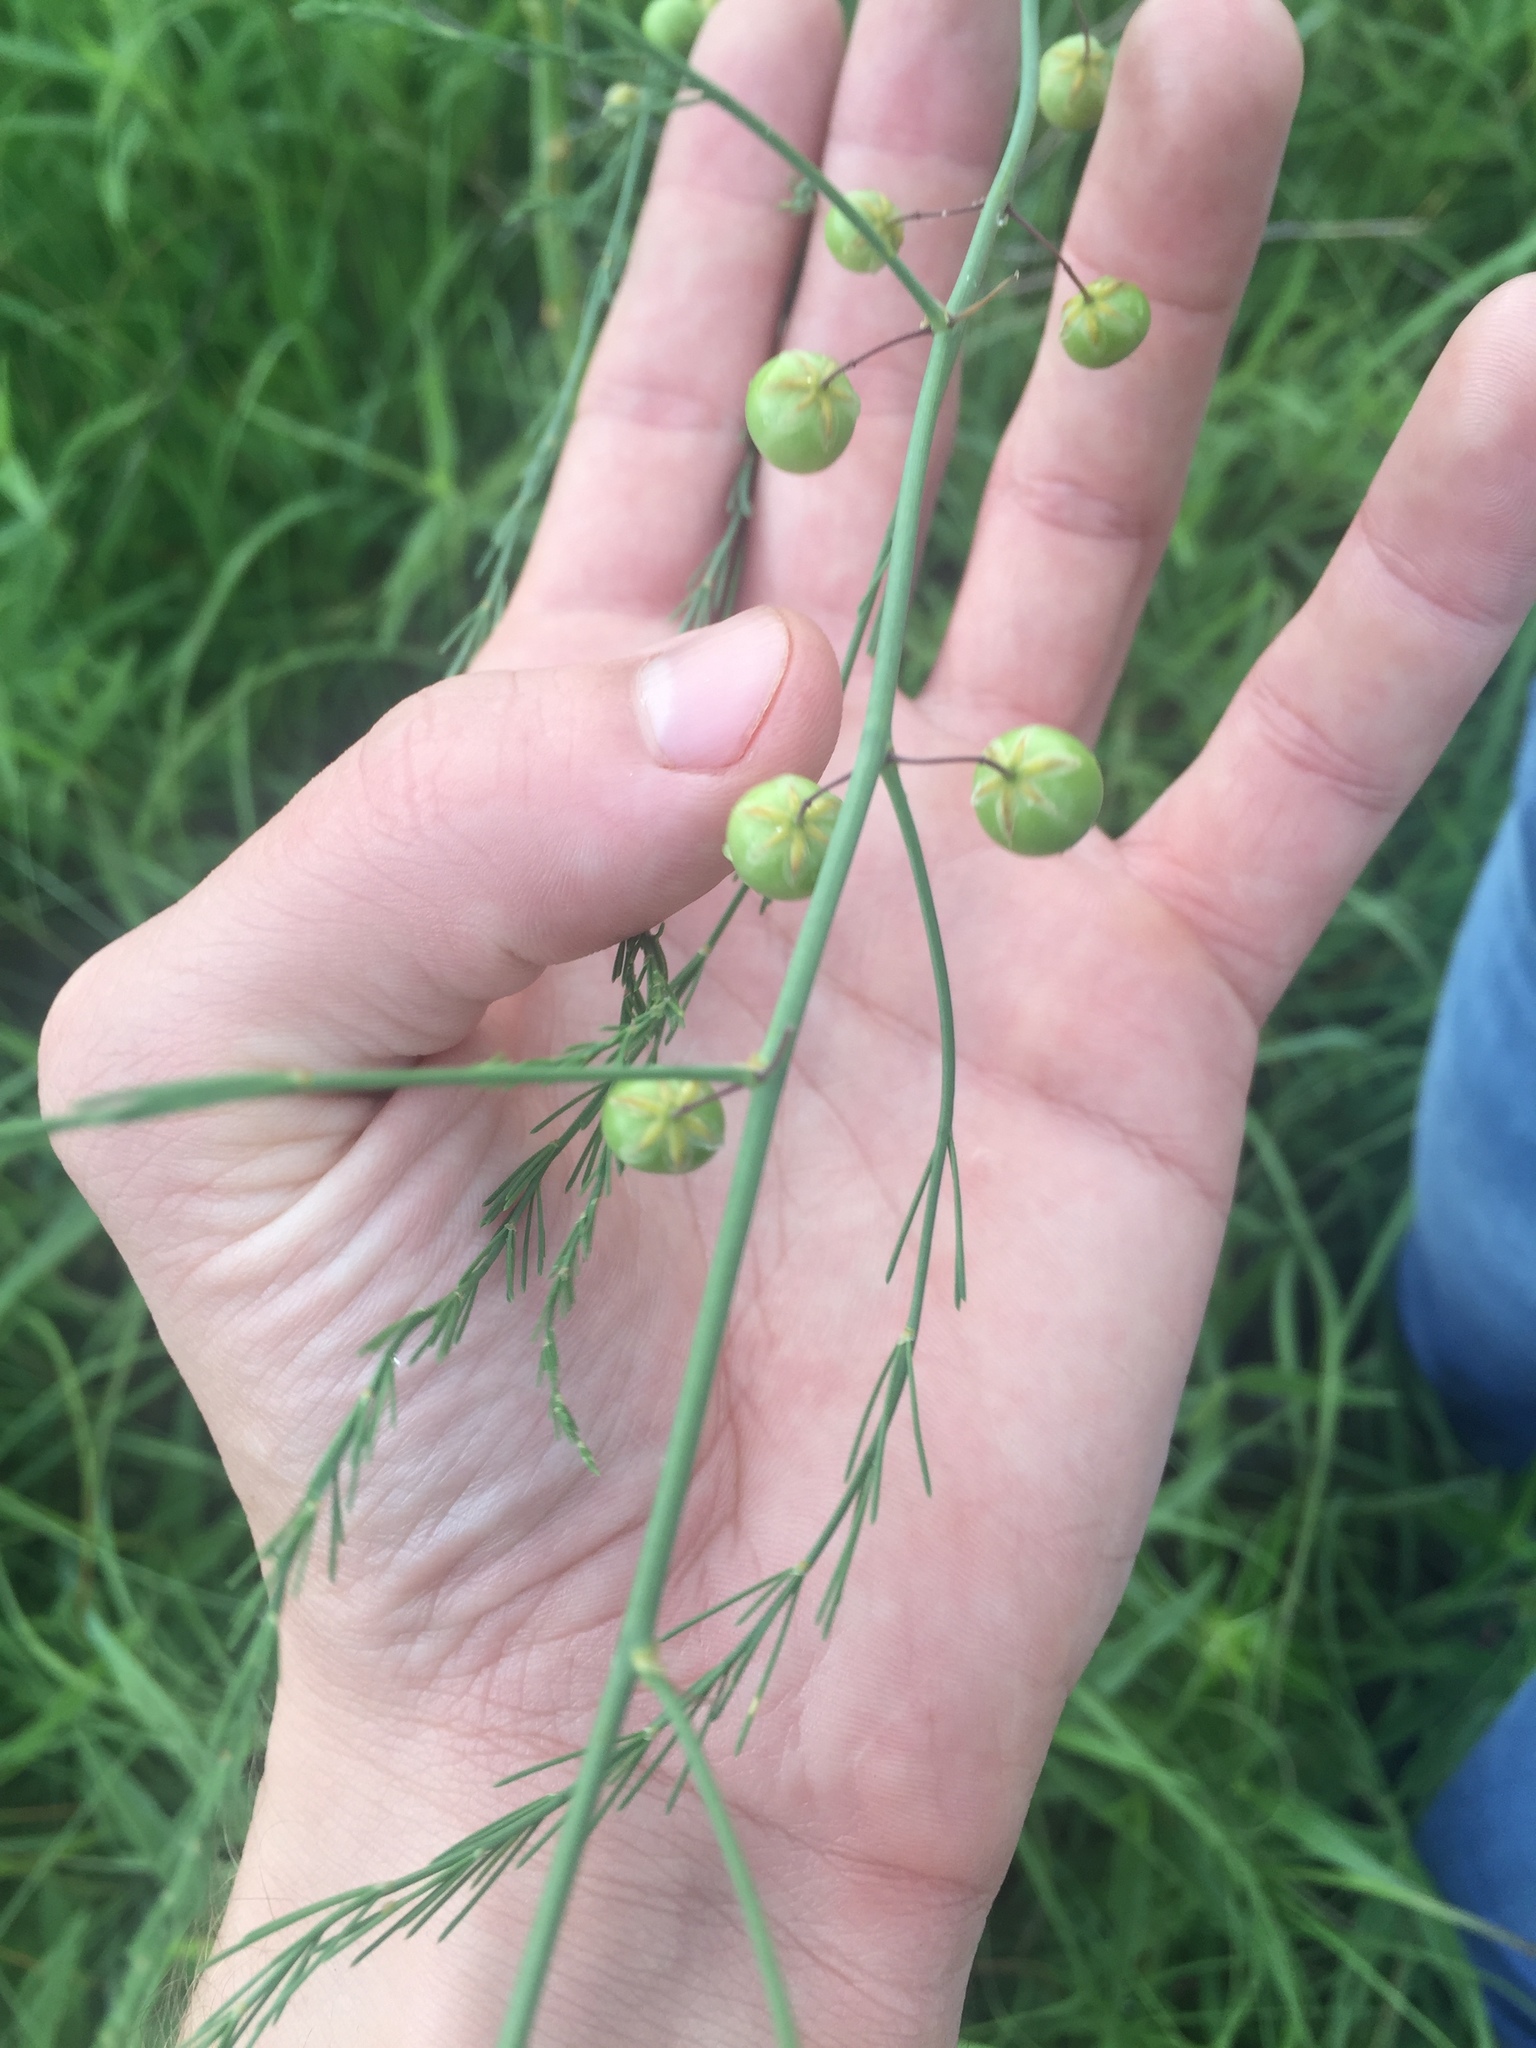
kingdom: Plantae
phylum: Tracheophyta
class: Liliopsida
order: Asparagales
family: Asparagaceae
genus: Asparagus
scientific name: Asparagus officinalis
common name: Garden asparagus
